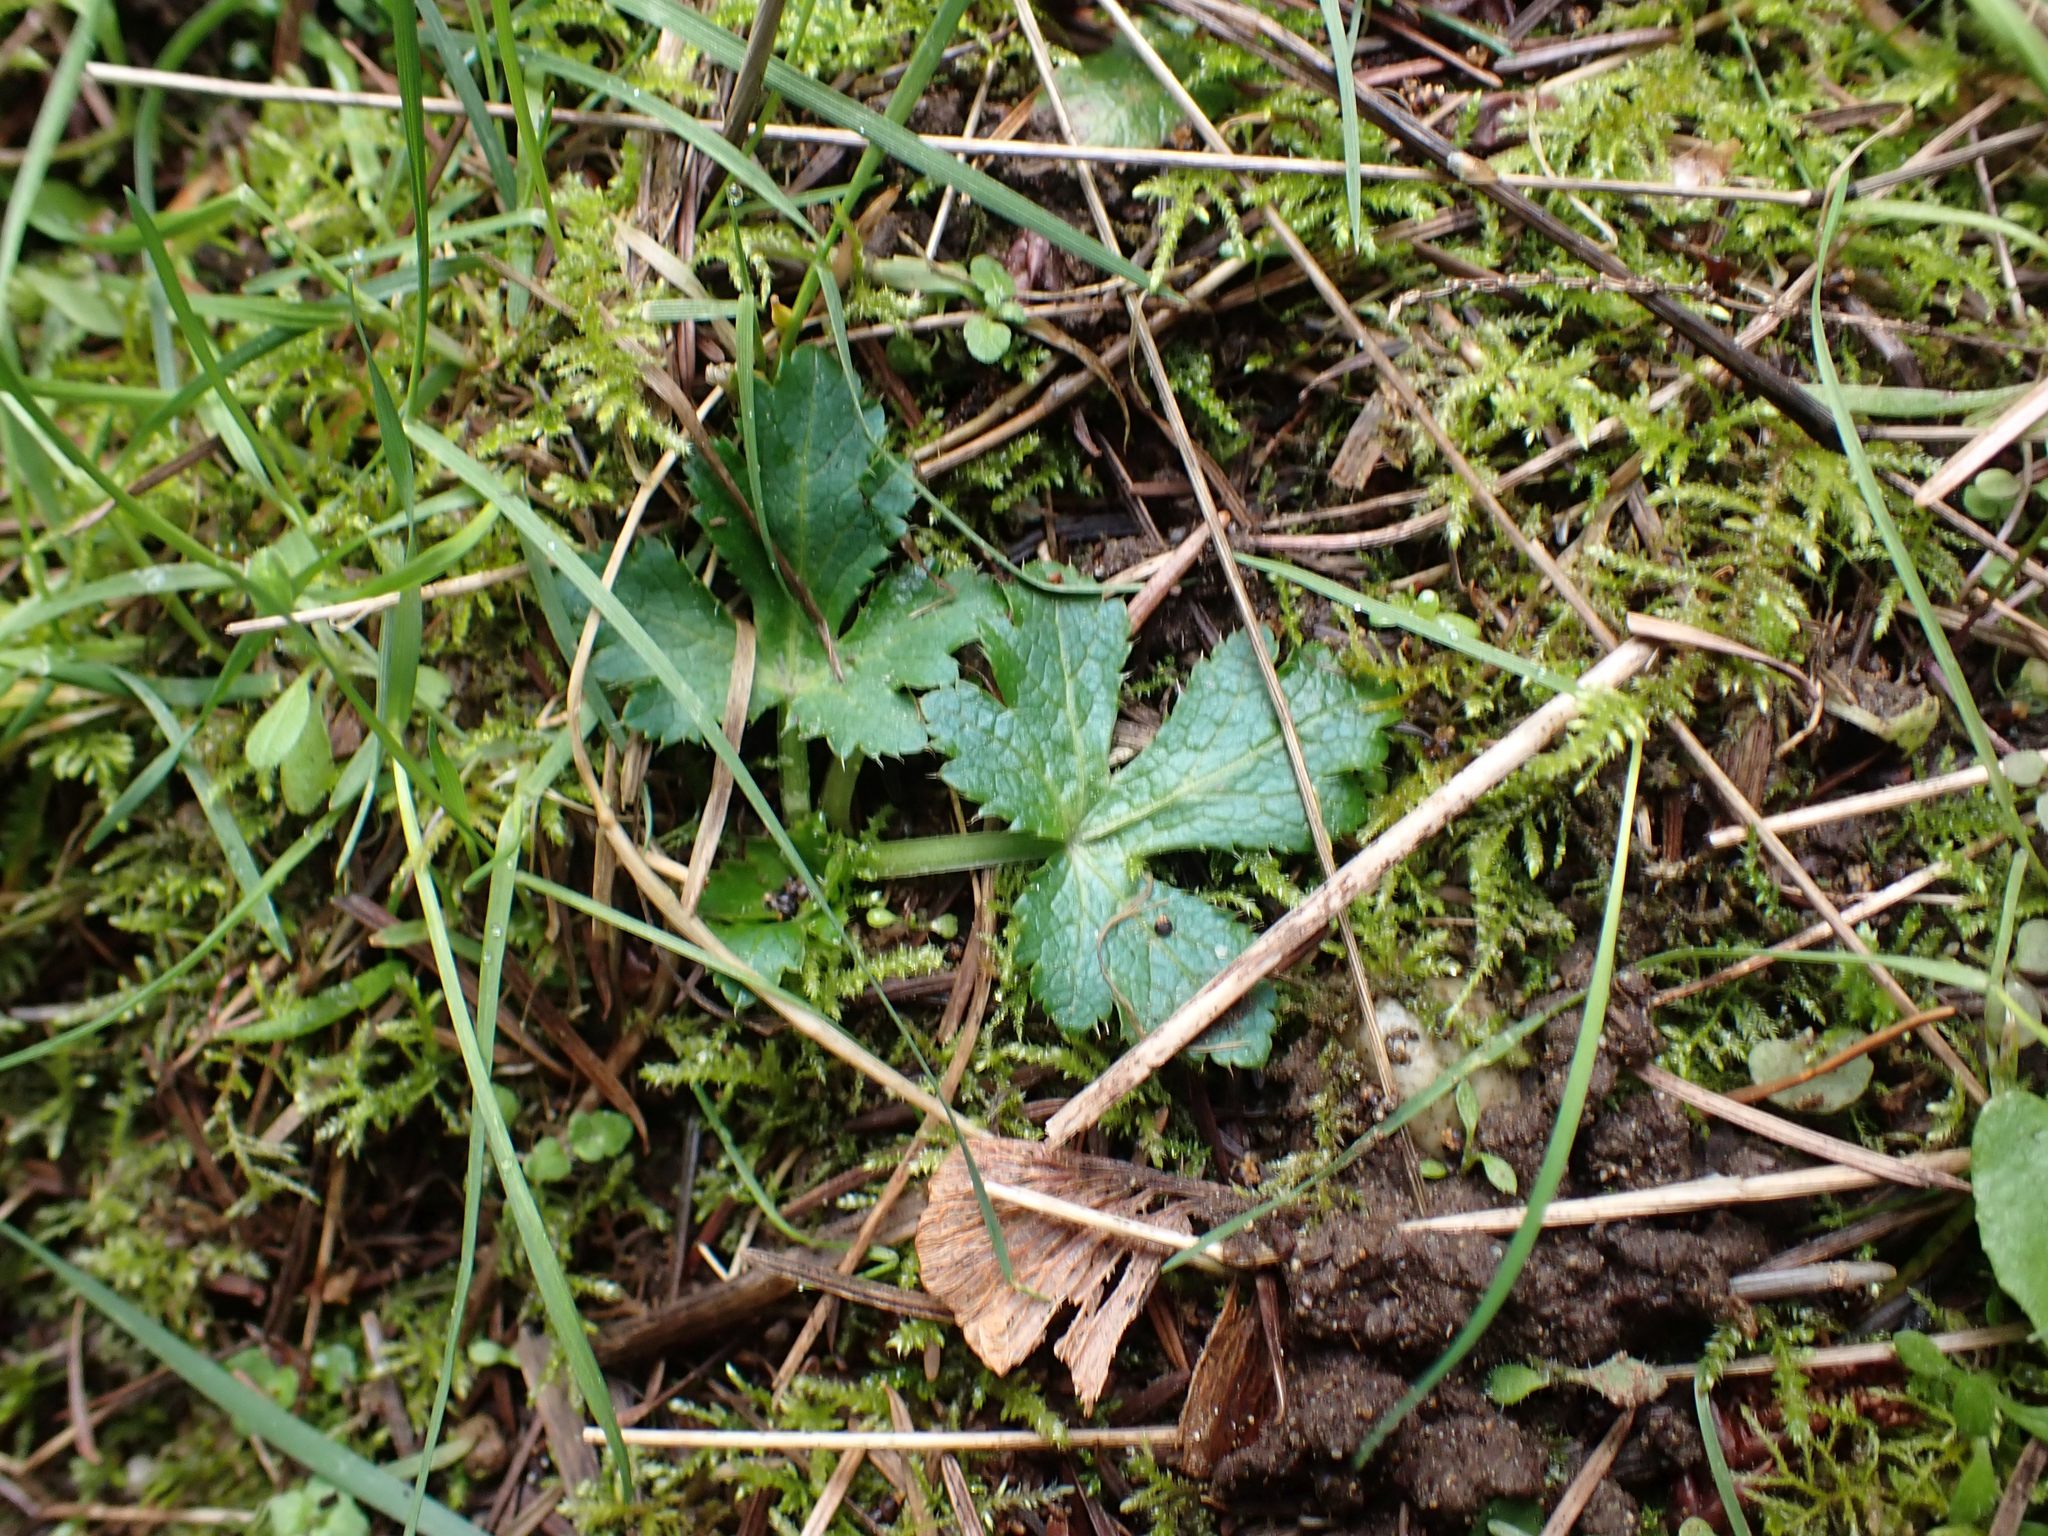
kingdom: Plantae
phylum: Tracheophyta
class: Magnoliopsida
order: Apiales
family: Apiaceae
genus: Sanicula
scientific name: Sanicula crassicaulis
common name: Western snakeroot
